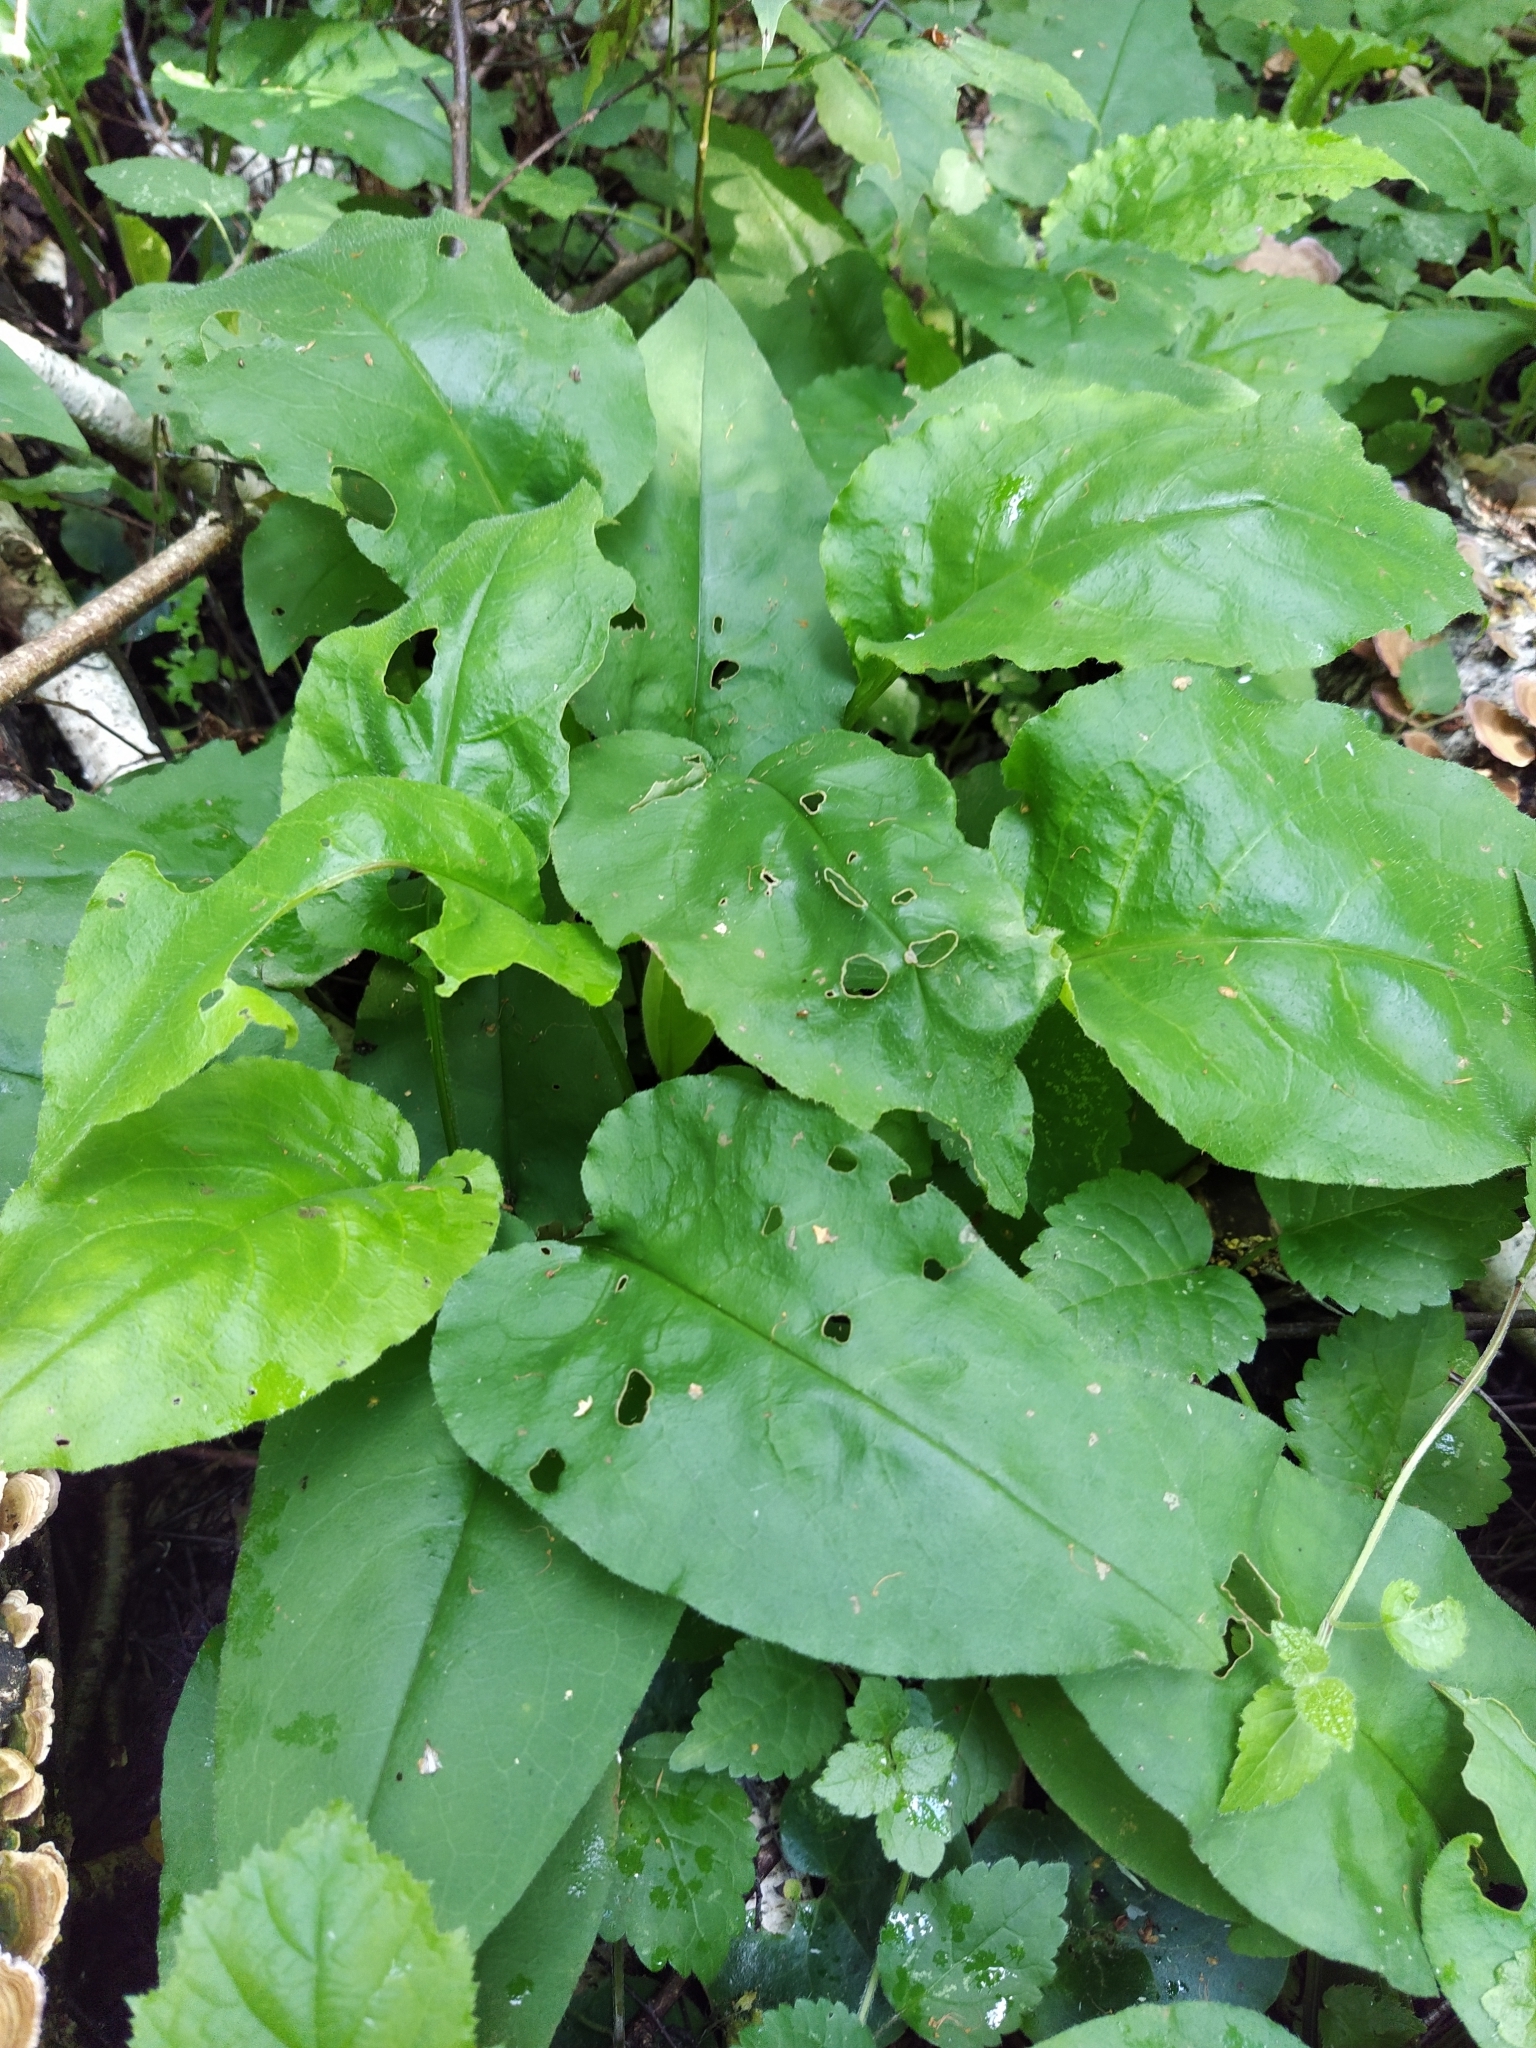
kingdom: Plantae
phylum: Tracheophyta
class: Magnoliopsida
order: Boraginales
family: Boraginaceae
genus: Pulmonaria
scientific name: Pulmonaria obscura
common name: Suffolk lungwort
